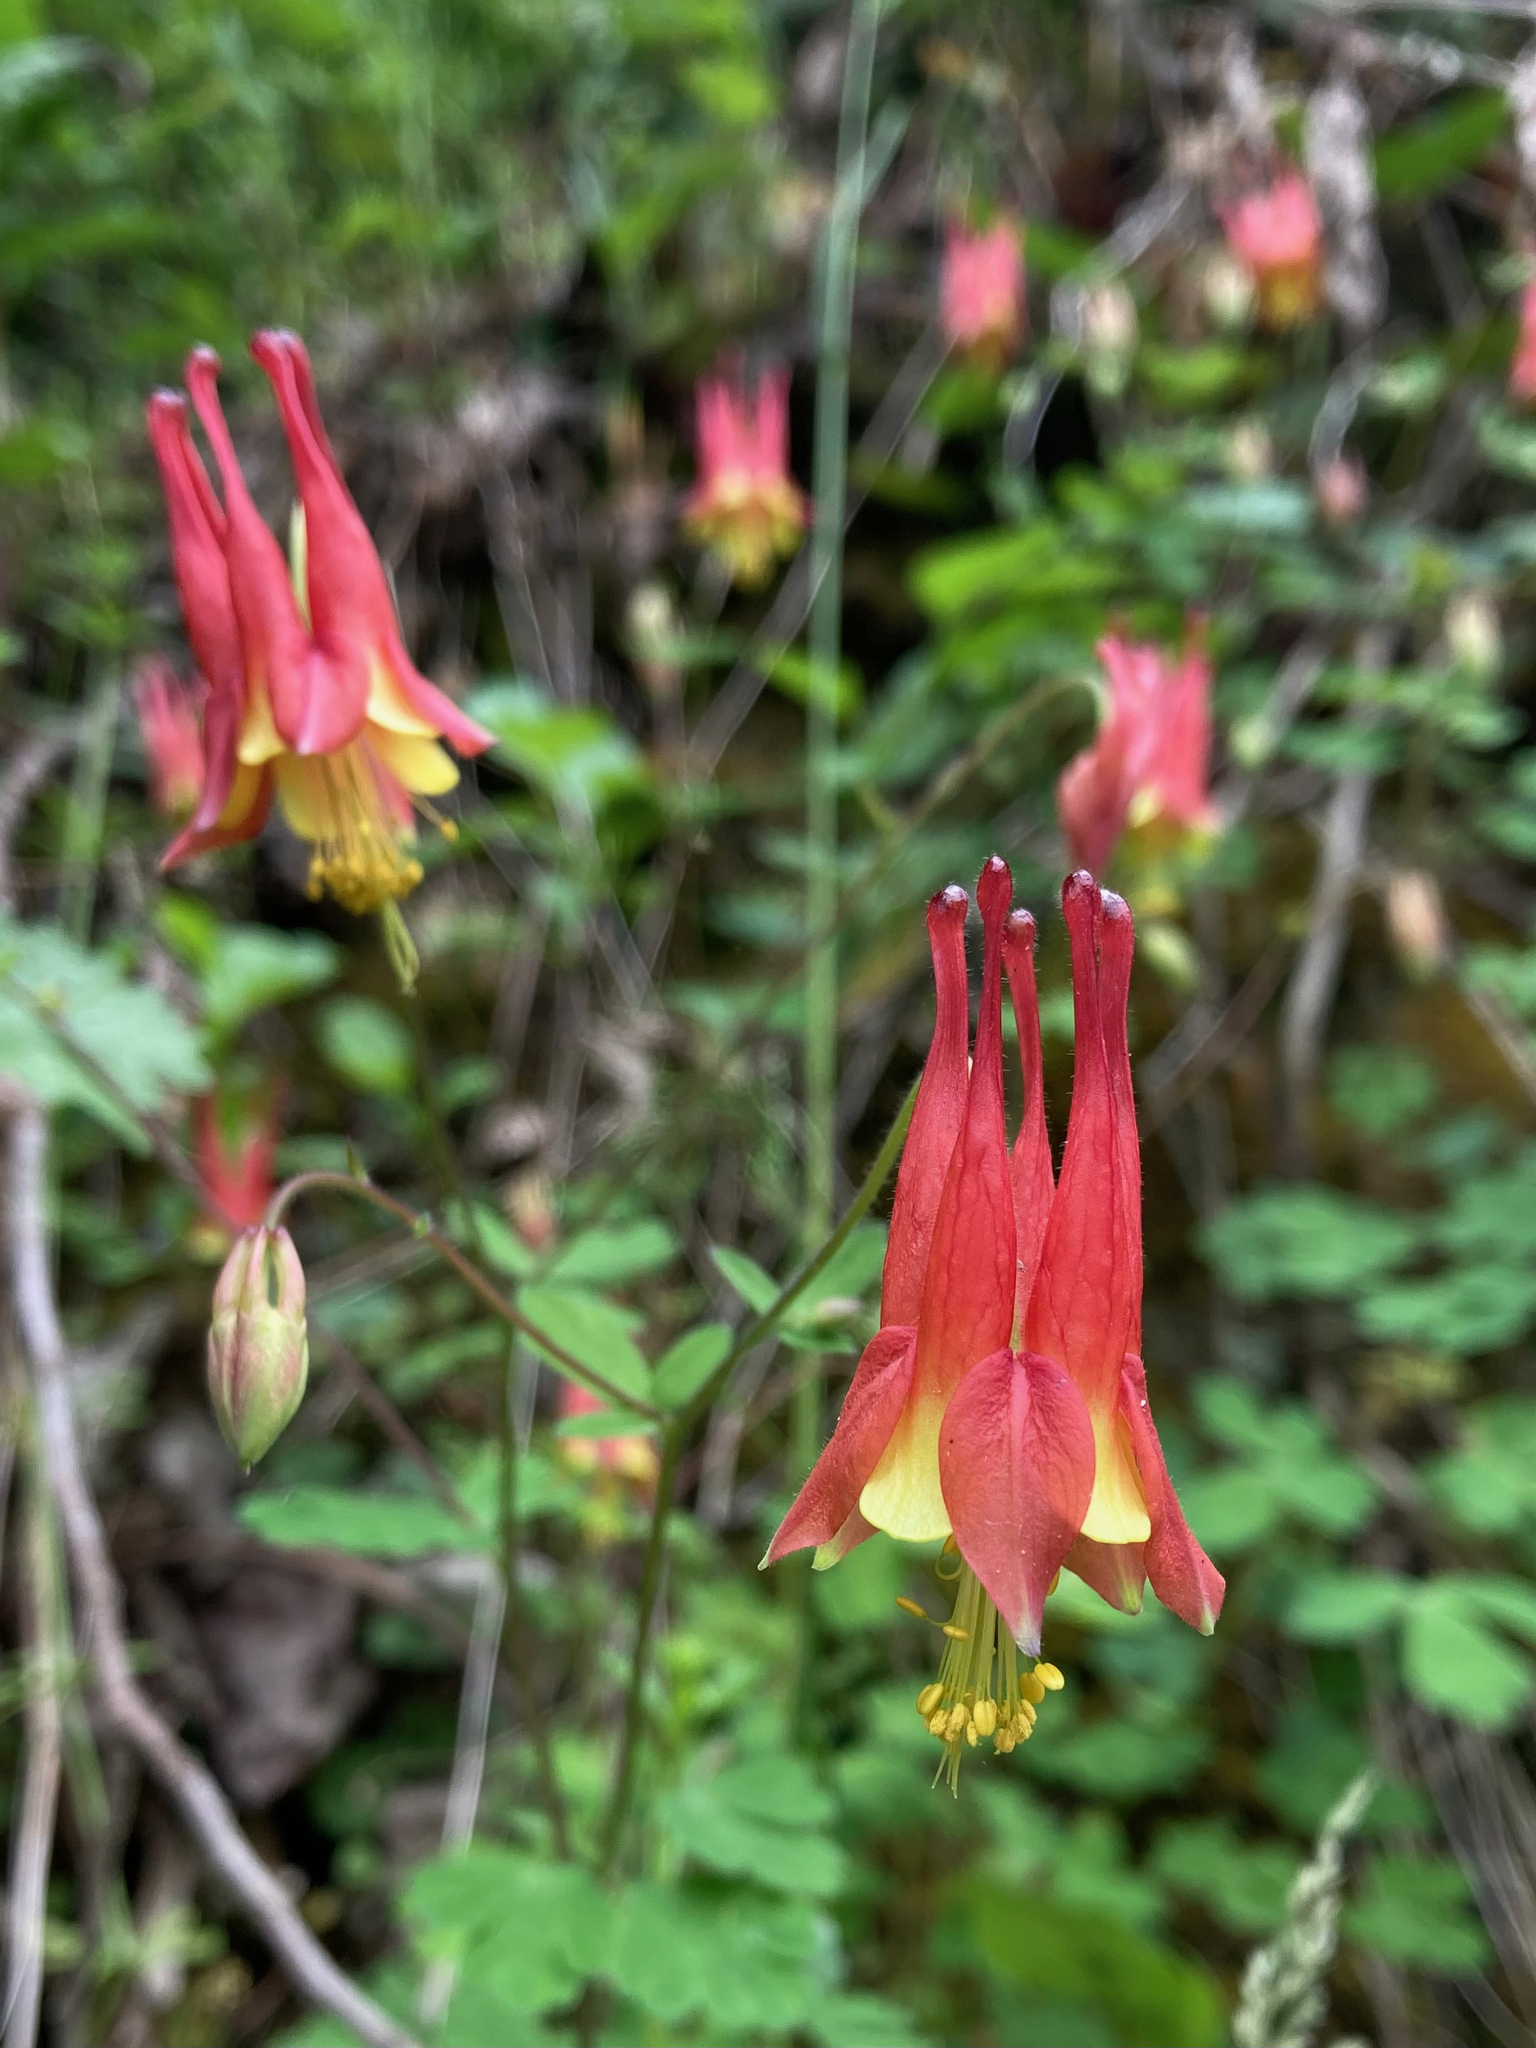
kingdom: Plantae
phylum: Tracheophyta
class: Magnoliopsida
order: Ranunculales
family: Ranunculaceae
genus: Aquilegia
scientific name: Aquilegia canadensis
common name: American columbine
